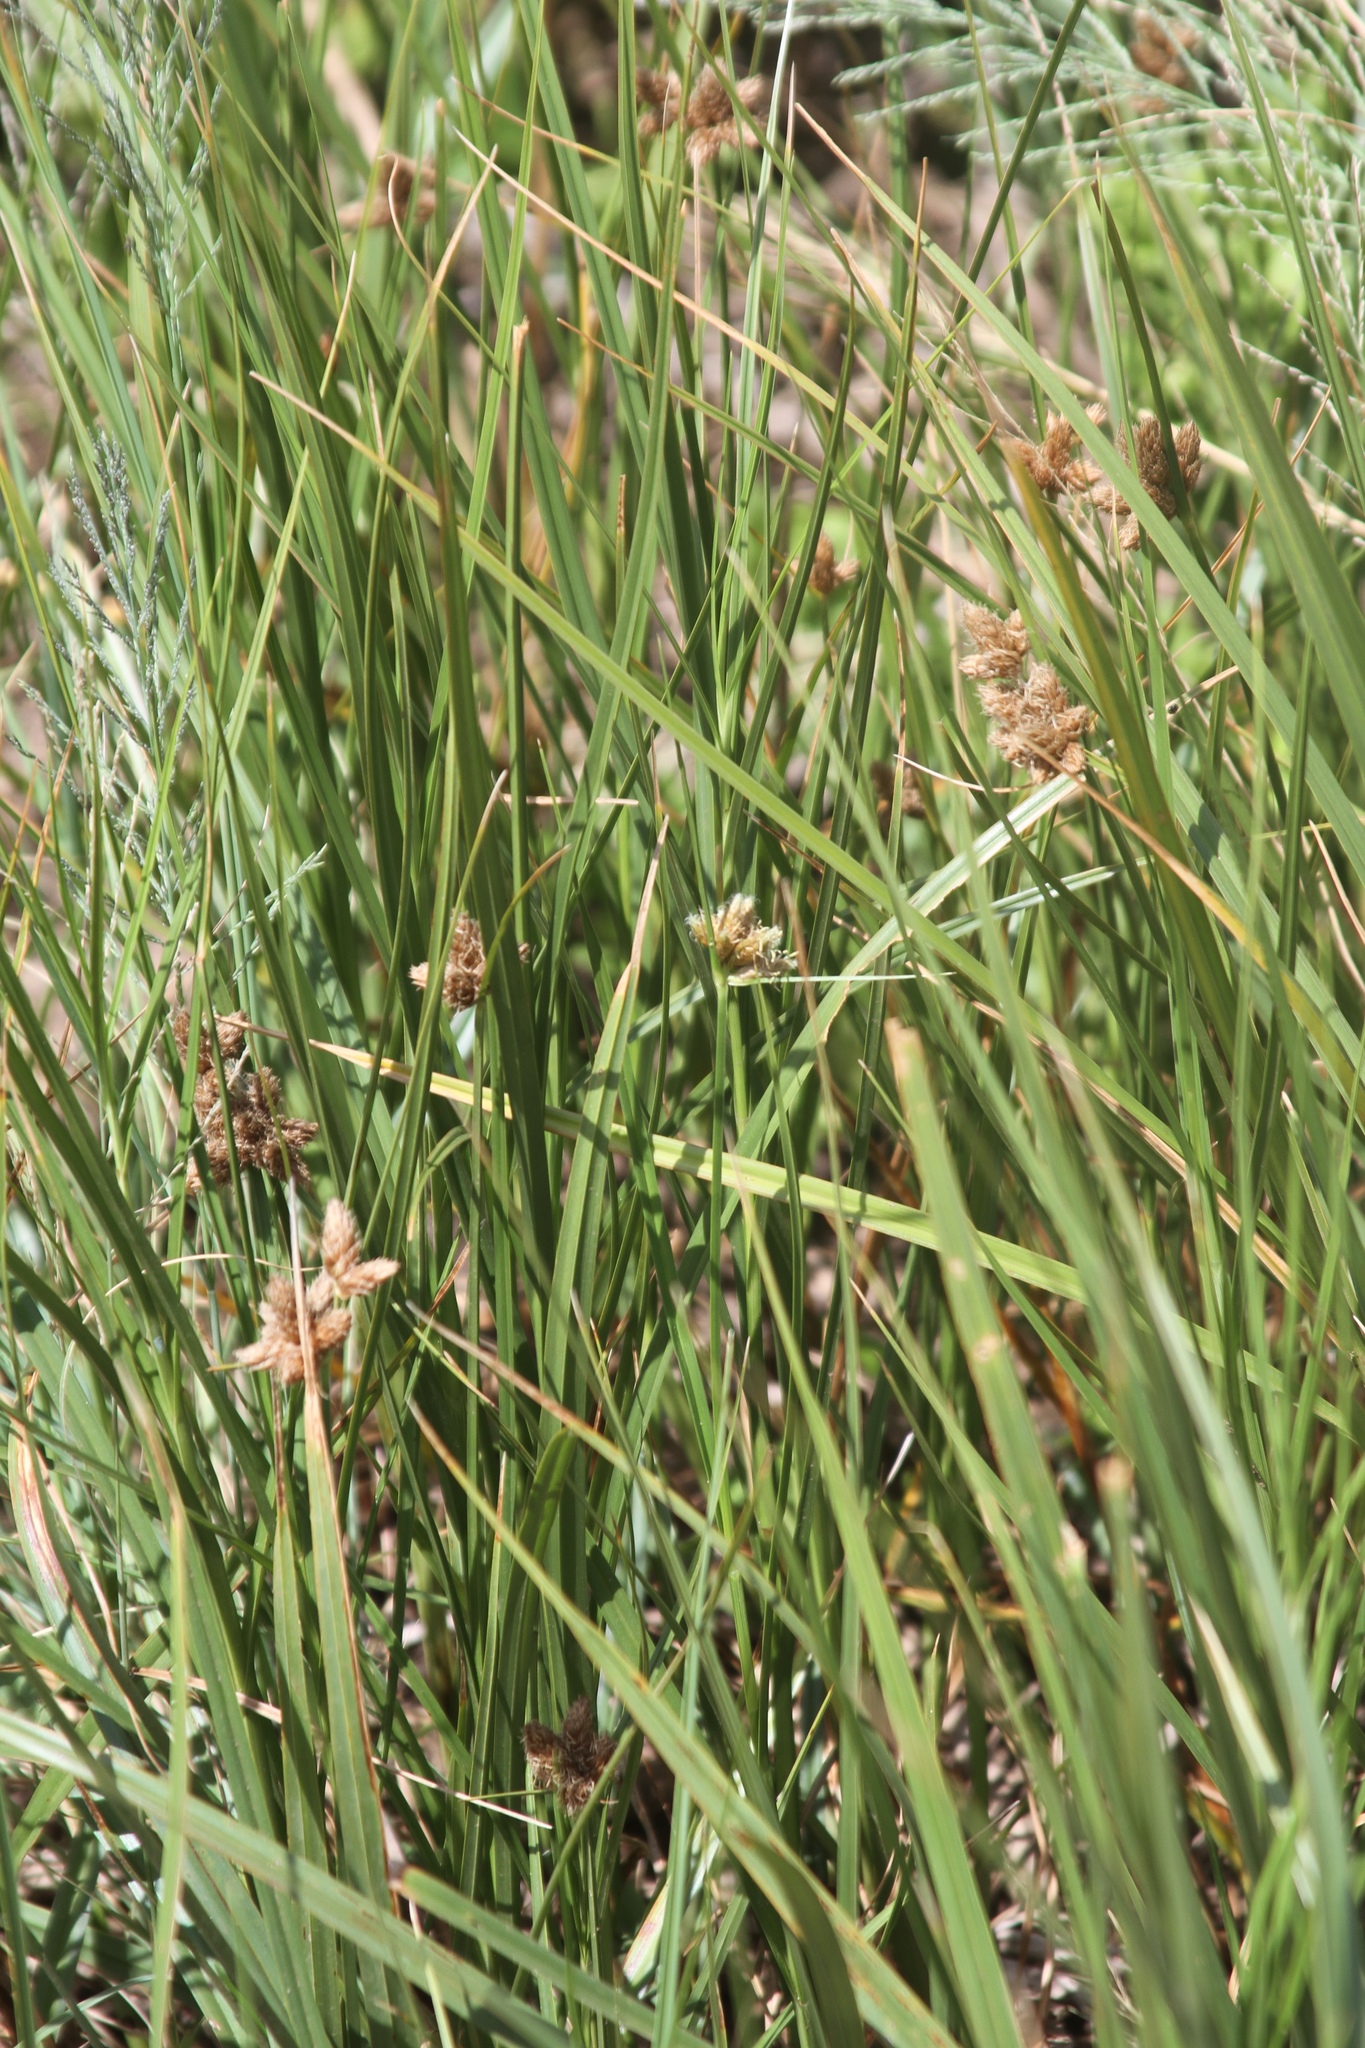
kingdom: Plantae
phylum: Tracheophyta
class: Liliopsida
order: Poales
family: Cyperaceae
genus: Bolboschoenus
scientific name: Bolboschoenus maritimus
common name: Sea club-rush
